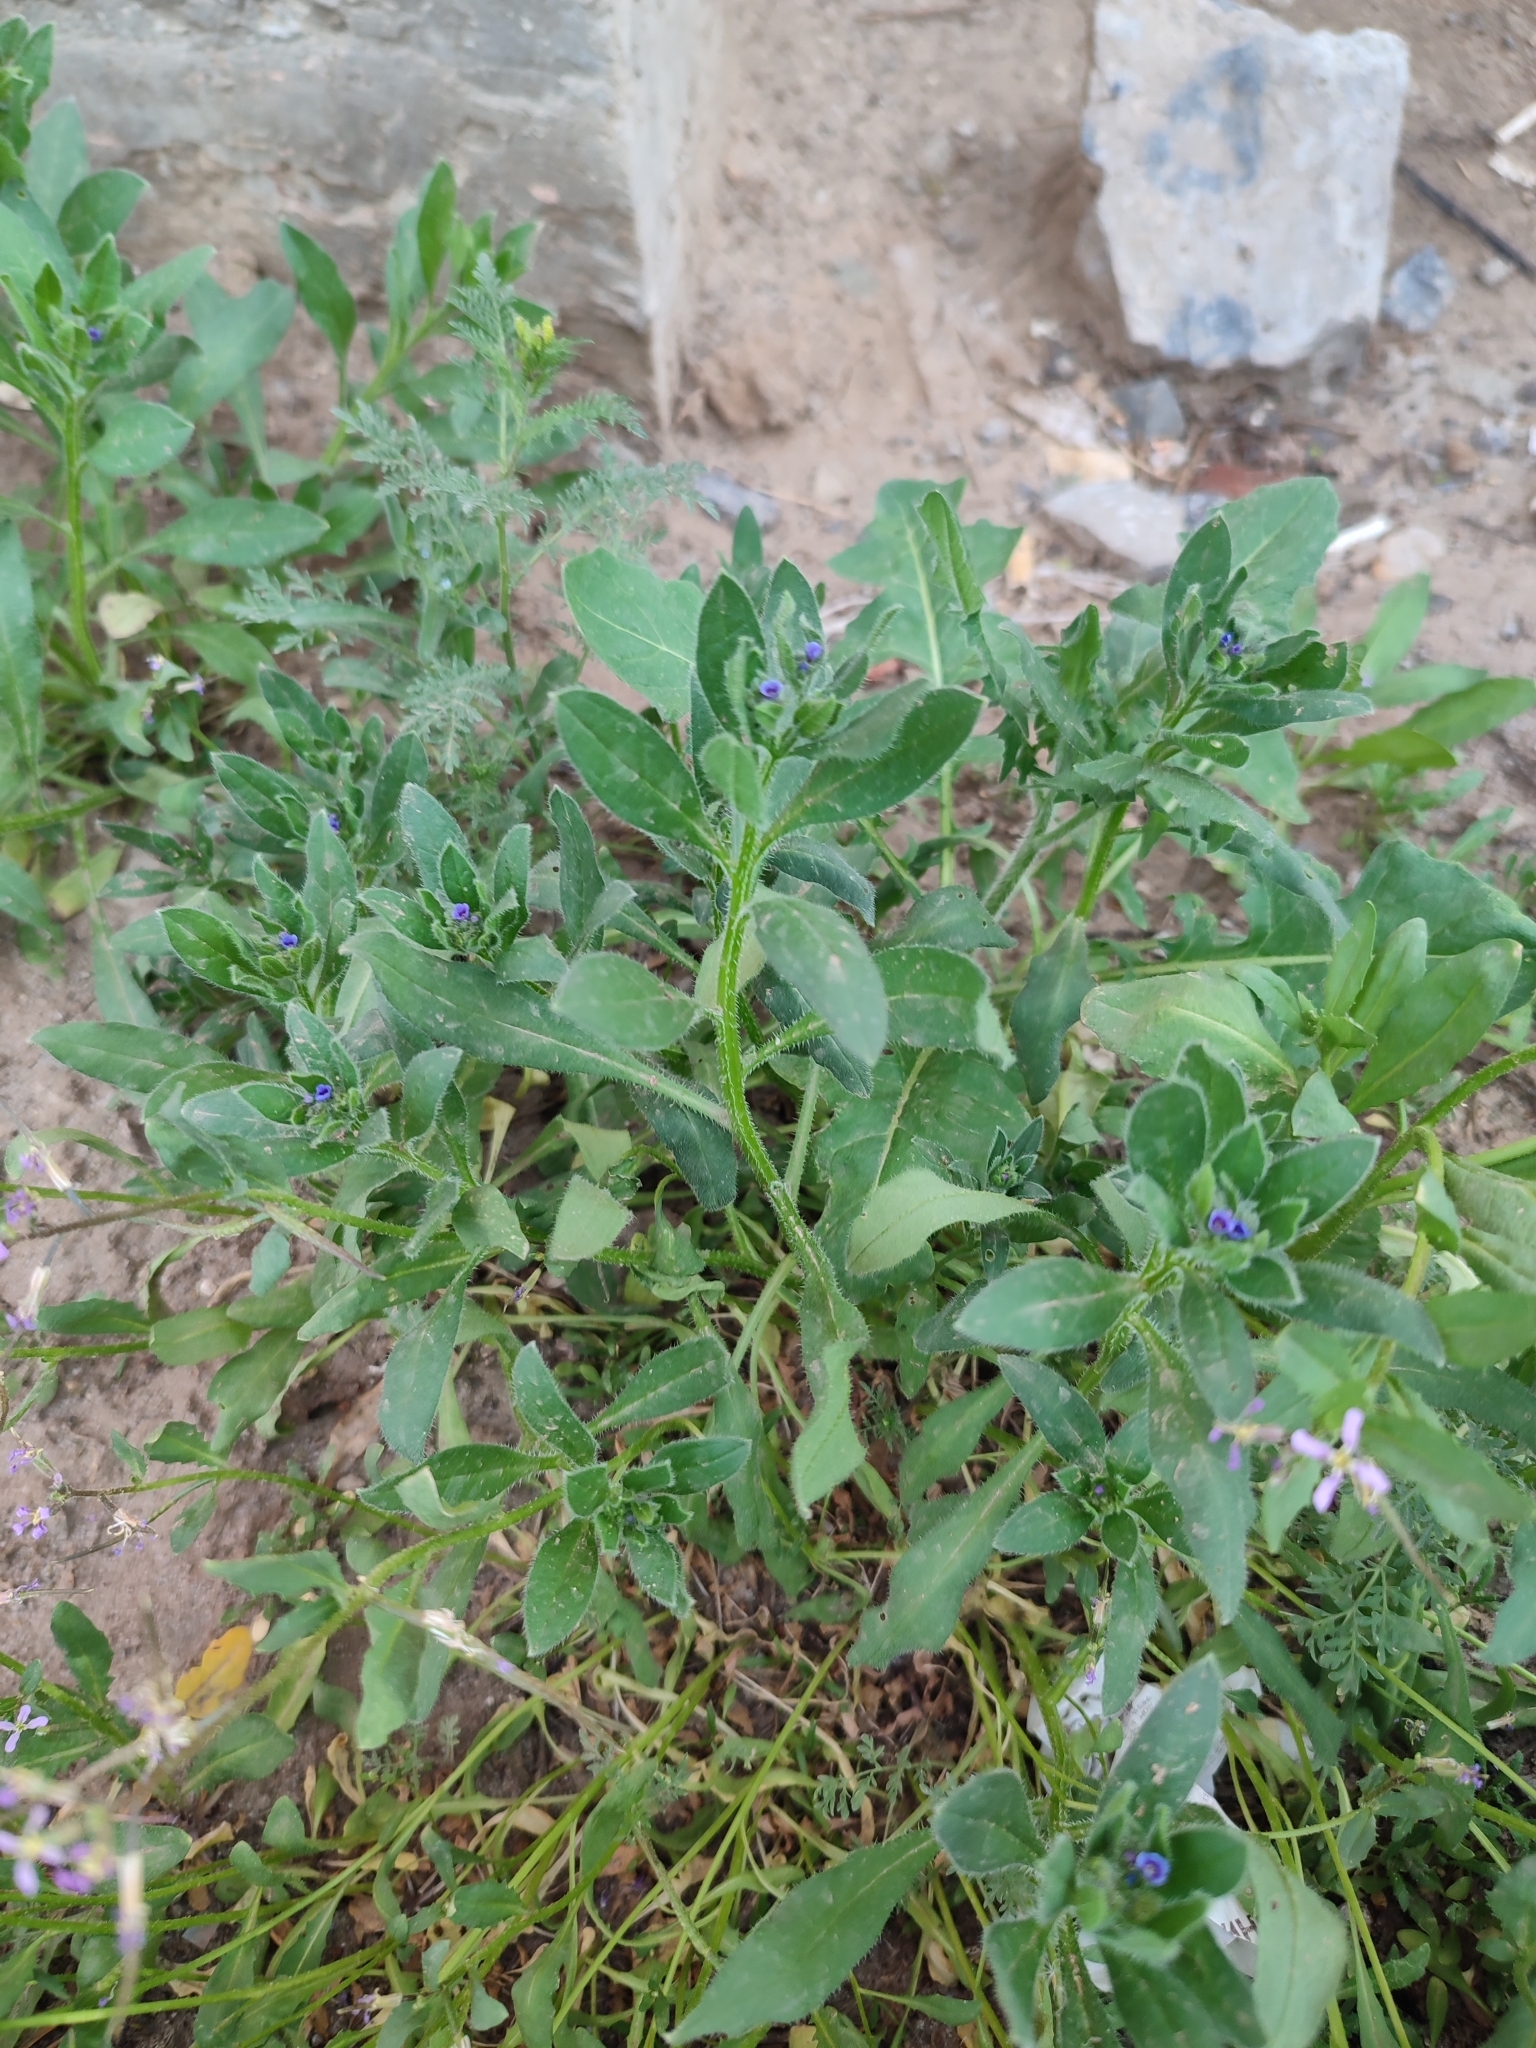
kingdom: Plantae
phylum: Tracheophyta
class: Magnoliopsida
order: Boraginales
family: Boraginaceae
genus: Asperugo
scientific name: Asperugo procumbens
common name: Madwort
